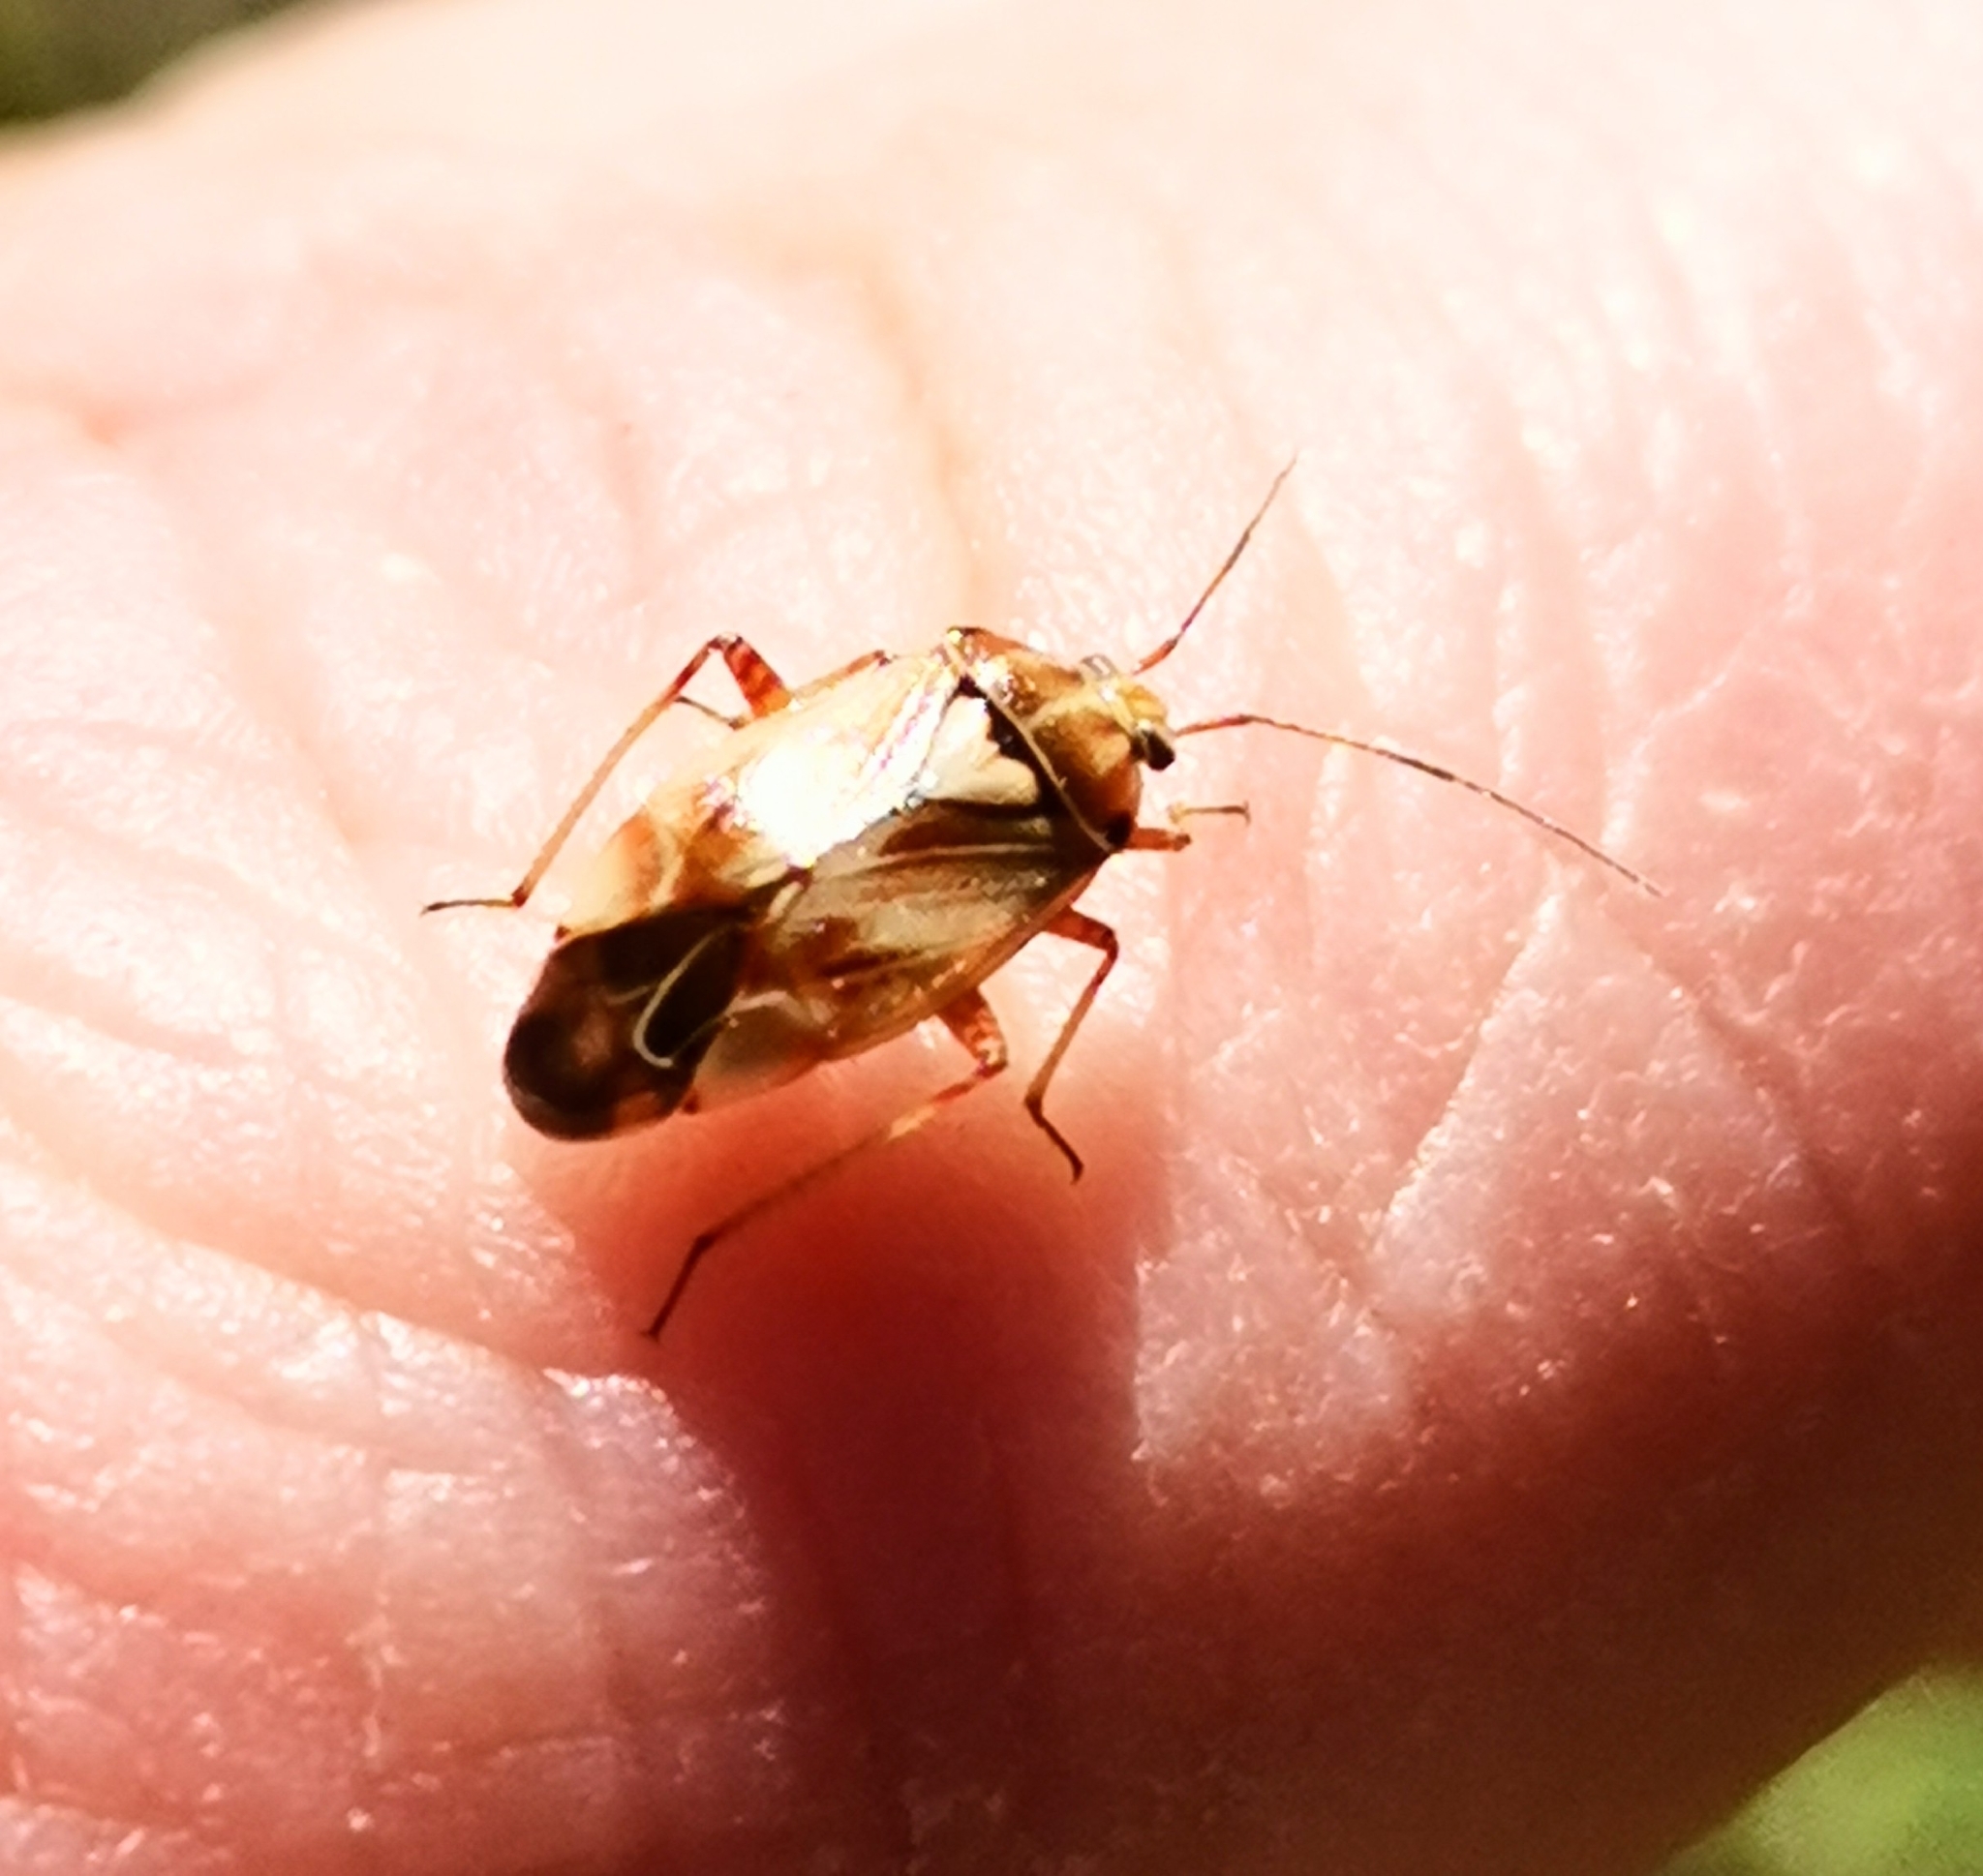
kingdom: Animalia
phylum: Arthropoda
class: Insecta
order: Hemiptera
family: Miridae
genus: Lygus
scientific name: Lygus punctatus
